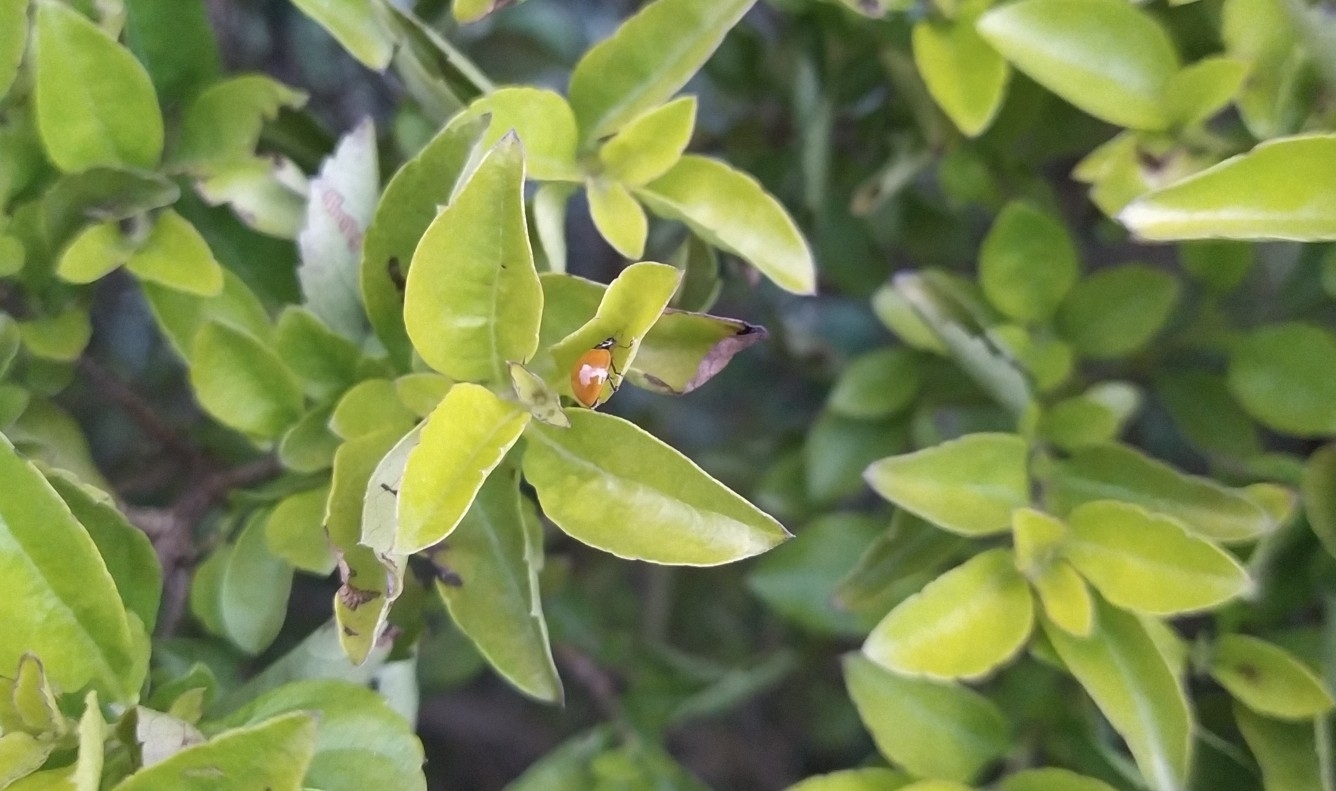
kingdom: Animalia
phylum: Arthropoda
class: Insecta
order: Coleoptera
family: Coccinellidae
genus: Cycloneda
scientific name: Cycloneda sanguinea
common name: Ladybird beetle
